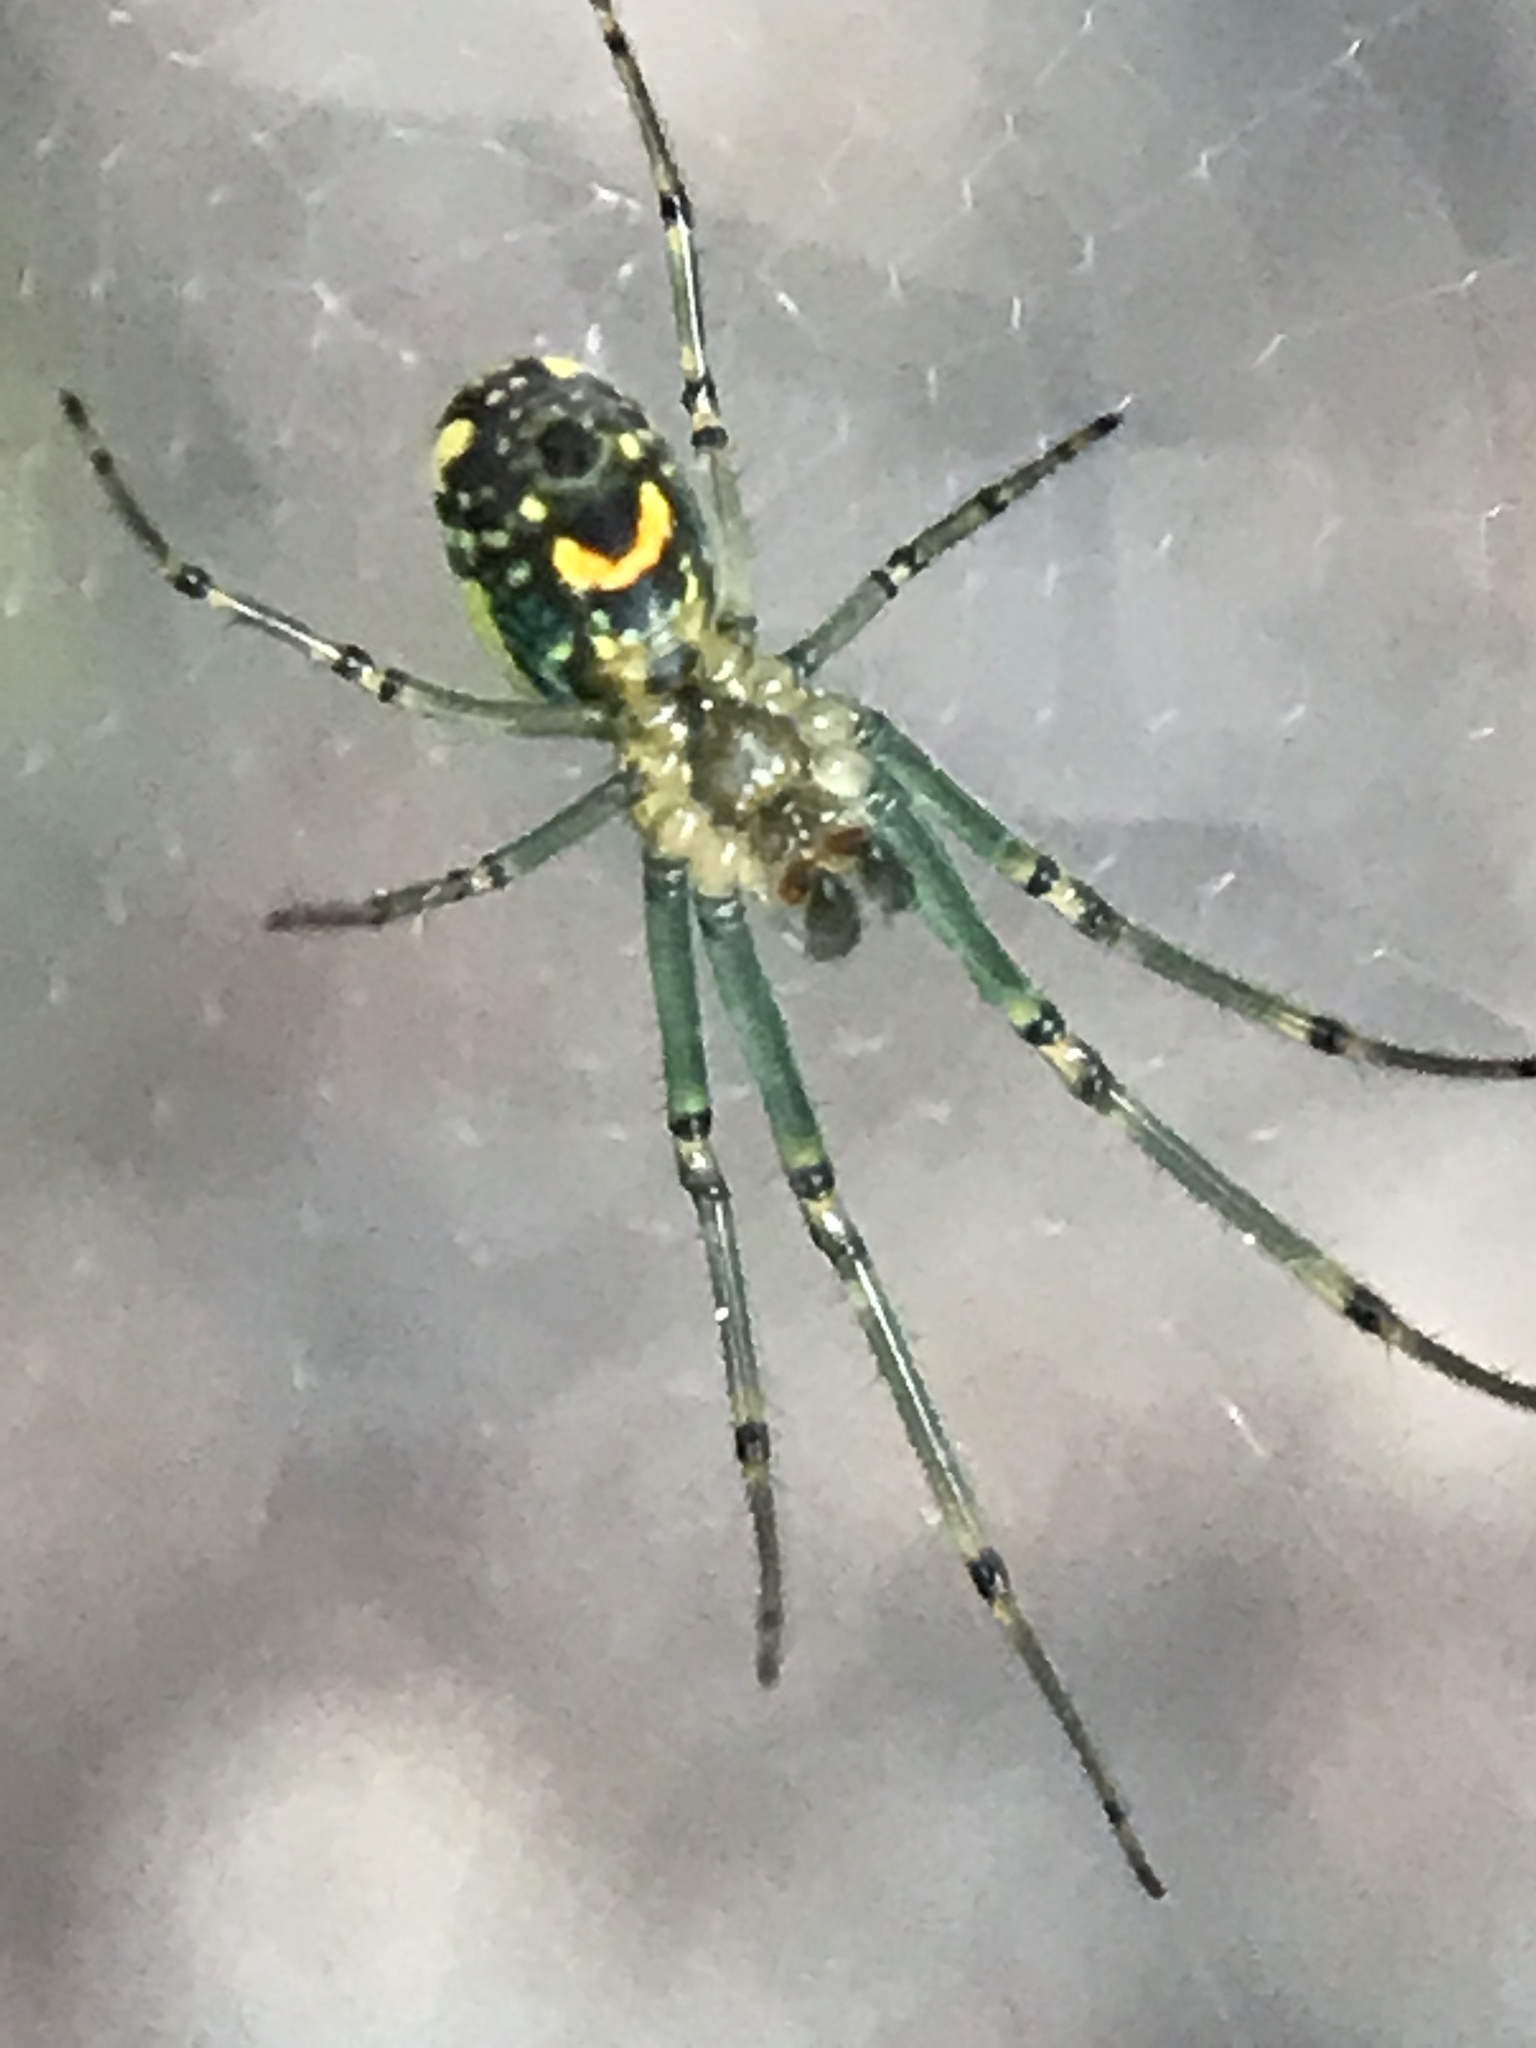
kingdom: Animalia
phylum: Arthropoda
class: Arachnida
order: Araneae
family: Tetragnathidae
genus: Leucauge
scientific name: Leucauge venusta
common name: Longjawed orb weavers
